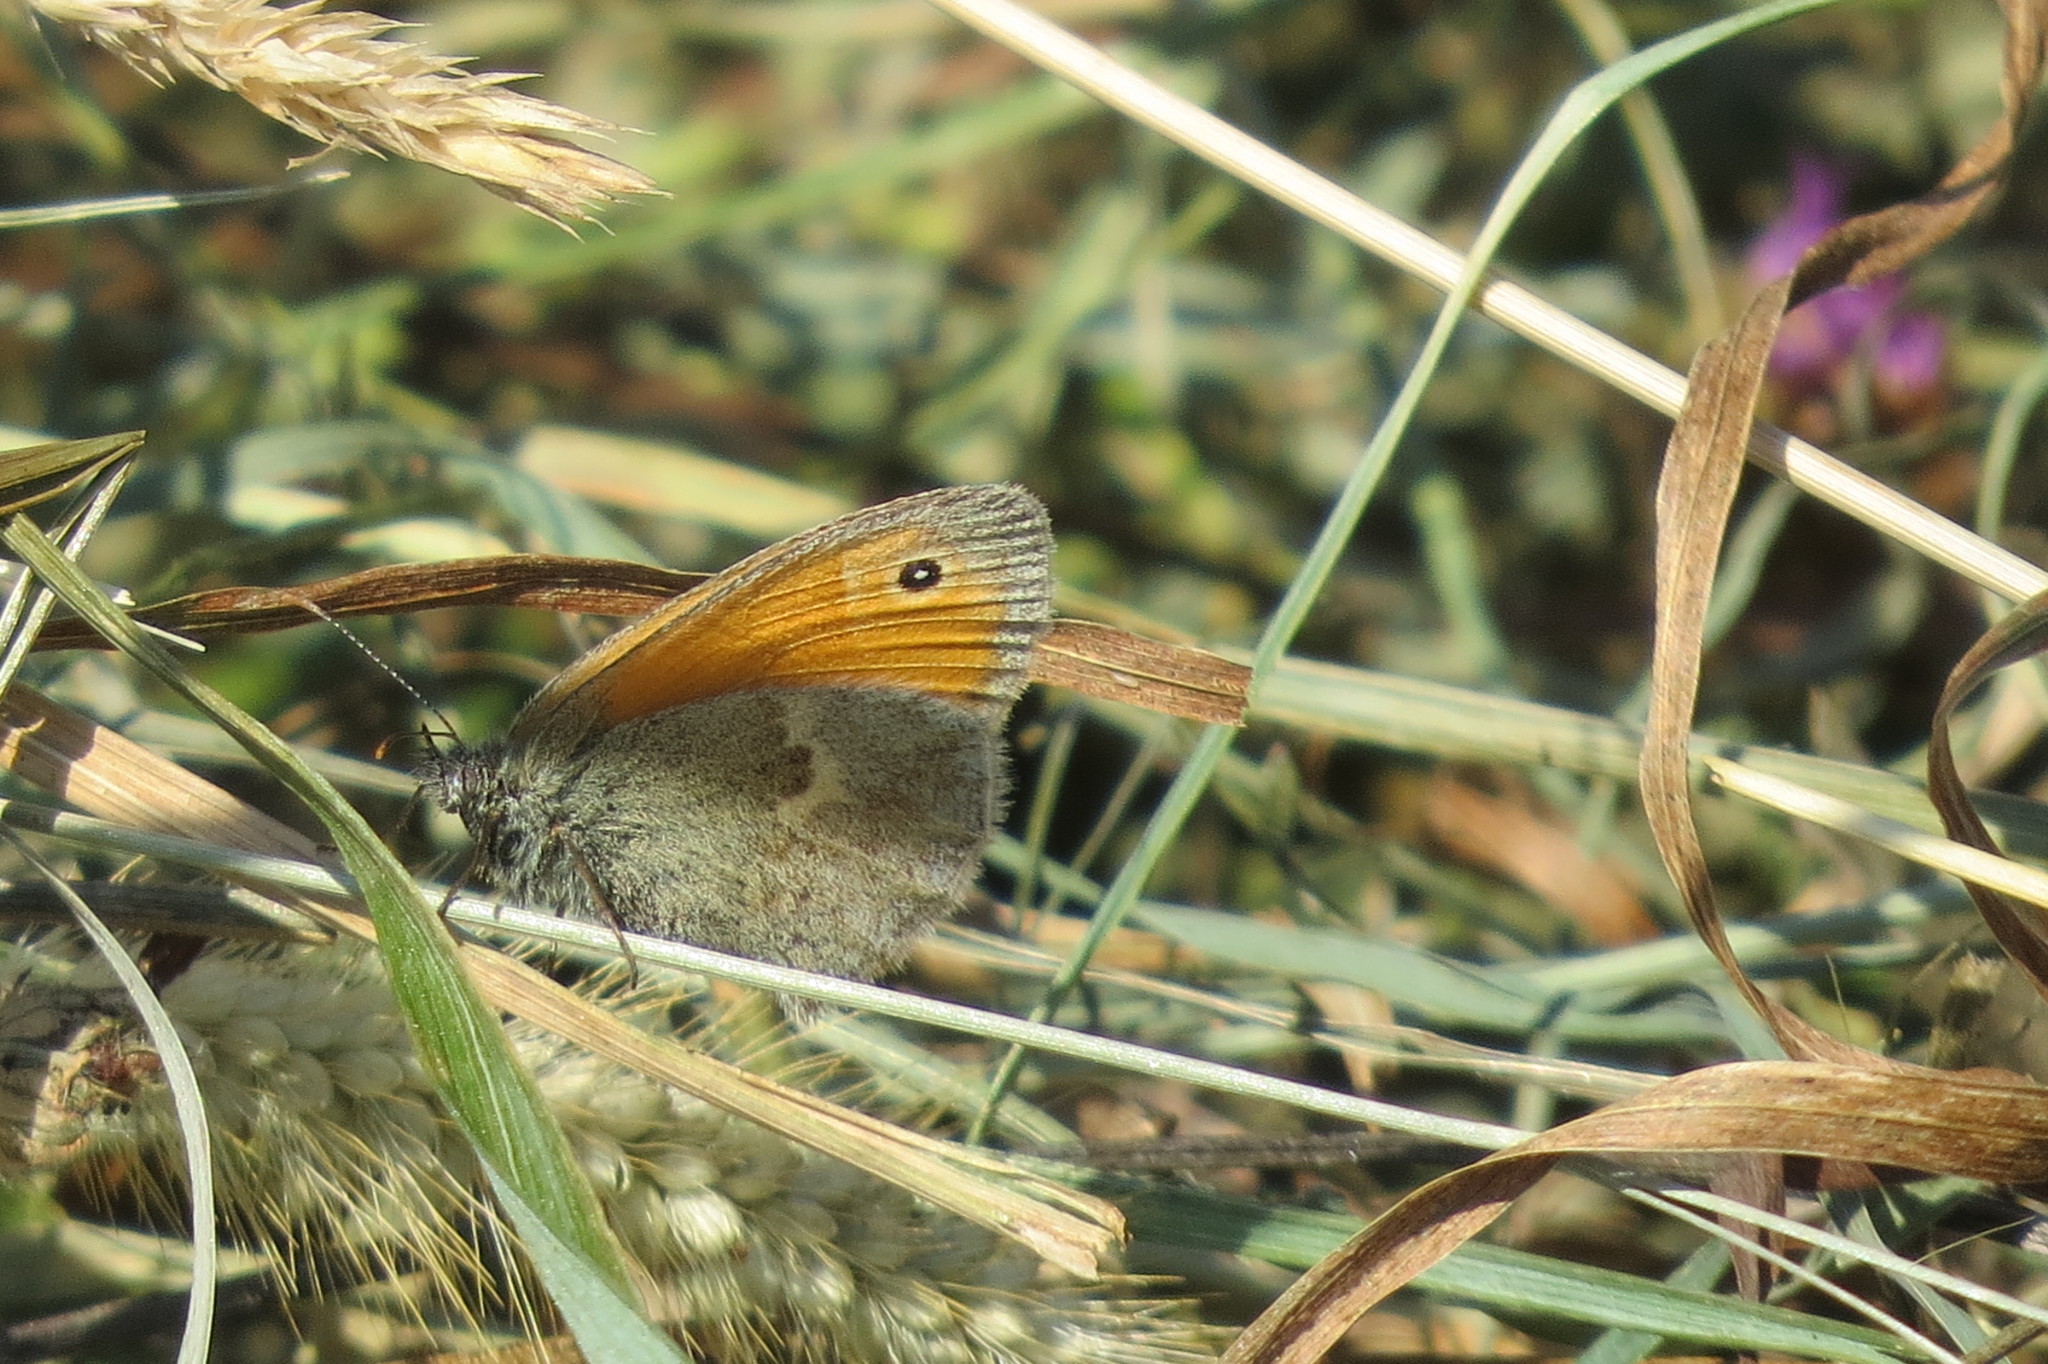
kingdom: Animalia
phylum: Arthropoda
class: Insecta
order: Lepidoptera
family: Nymphalidae
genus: Coenonympha
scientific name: Coenonympha pamphilus
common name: Small heath
